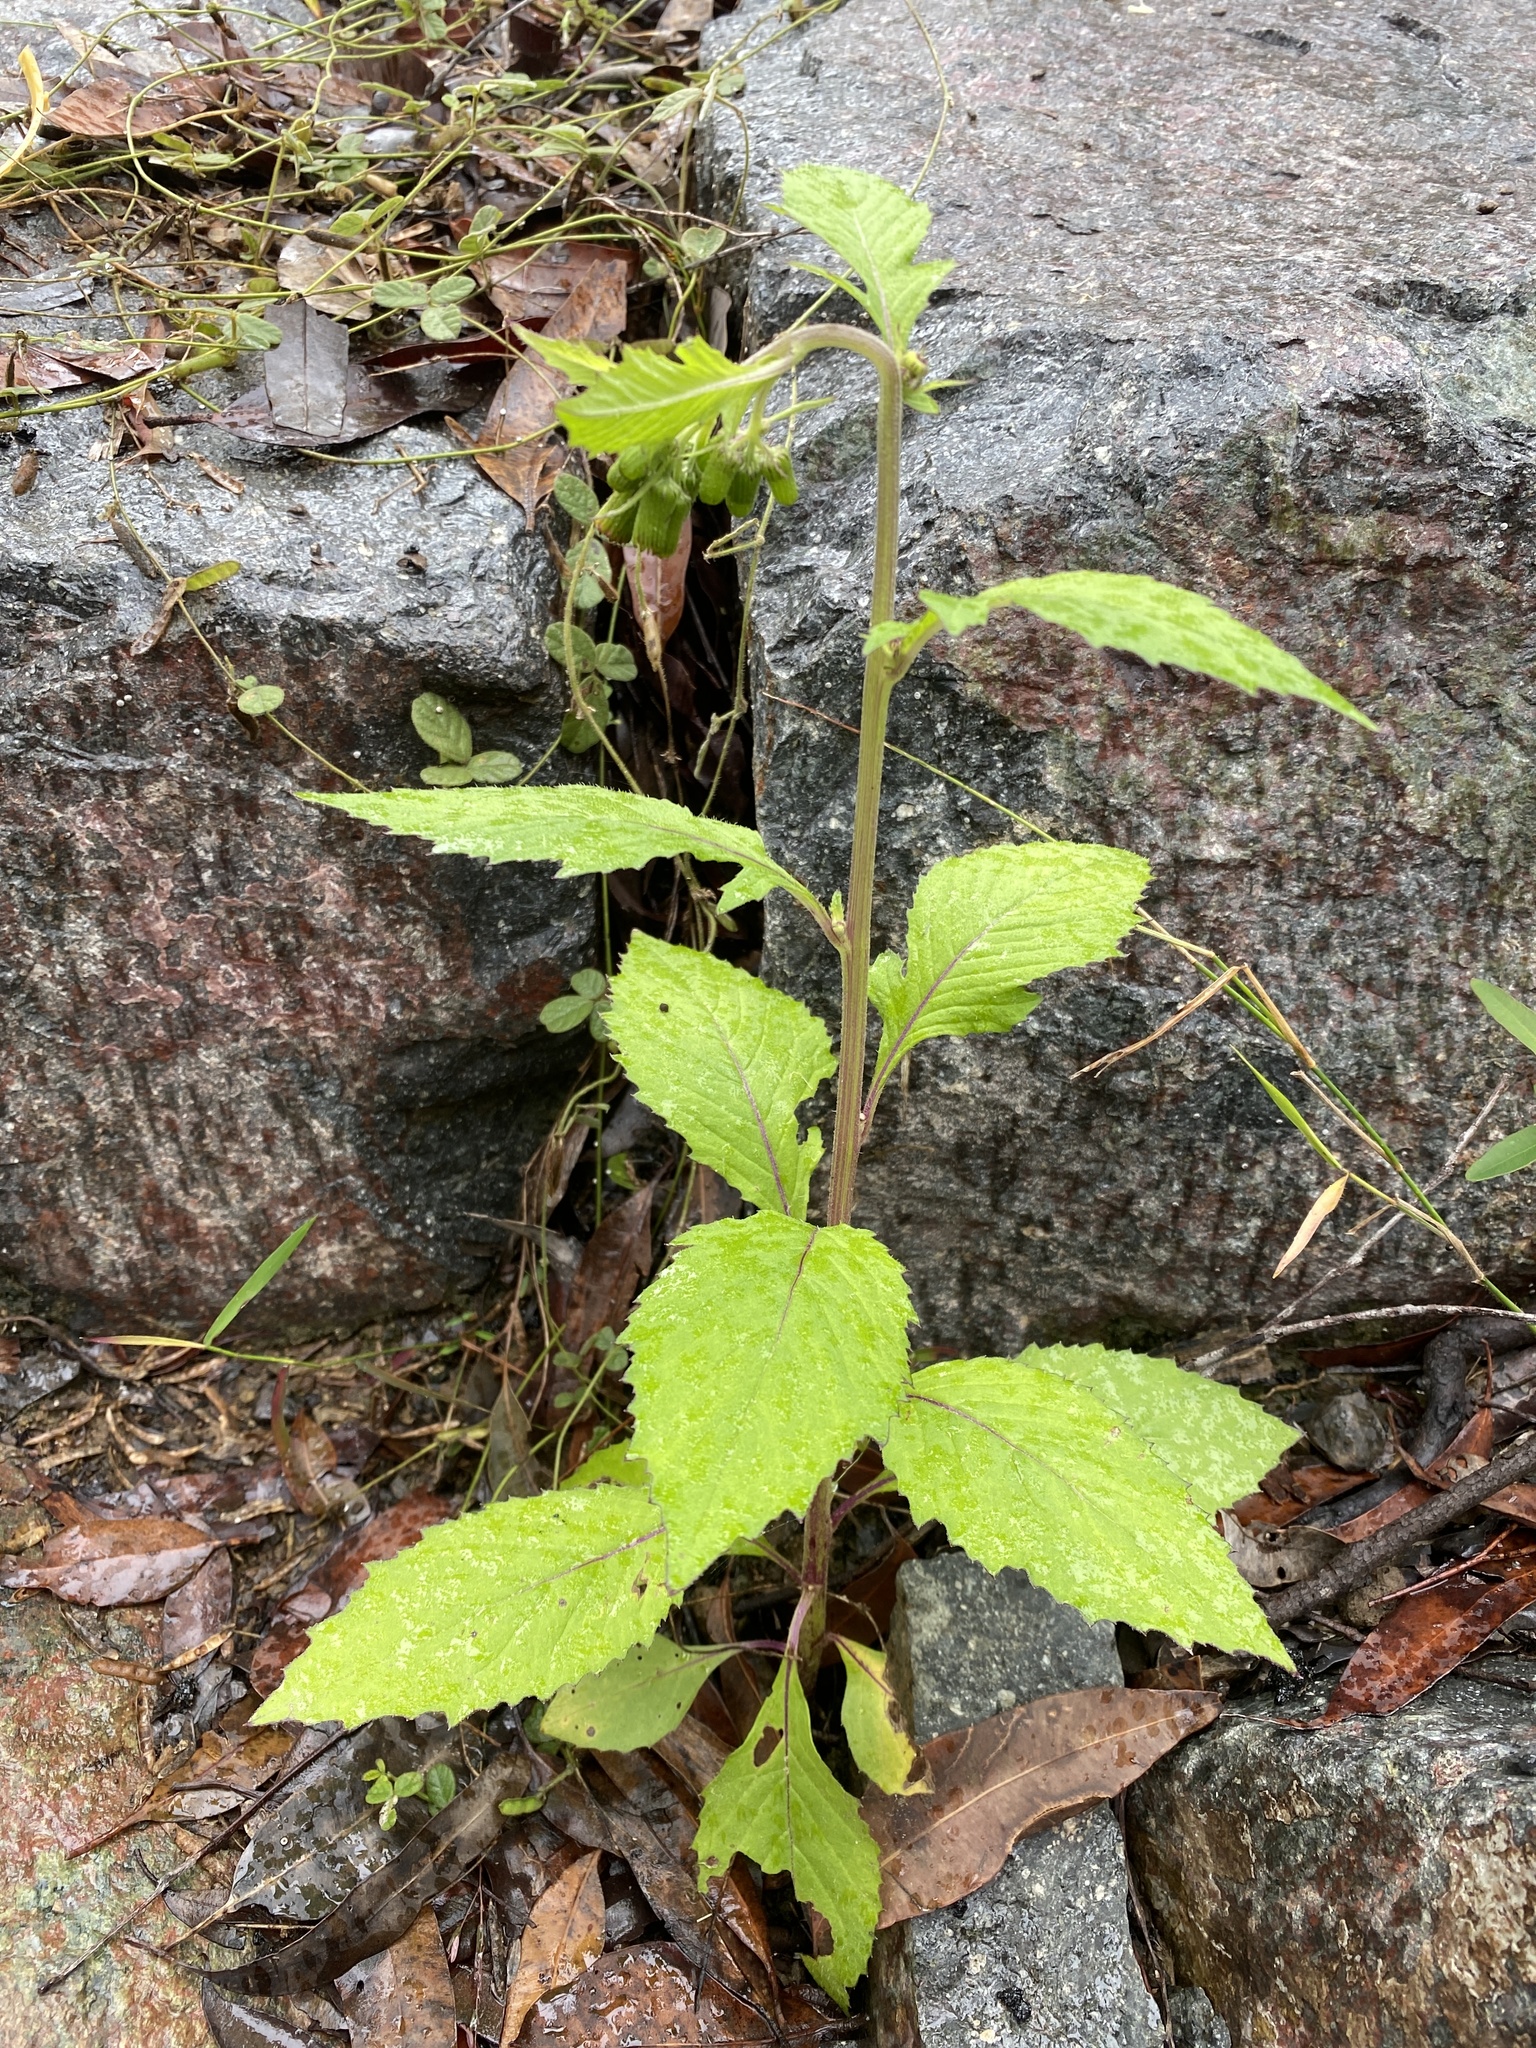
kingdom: Plantae
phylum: Tracheophyta
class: Magnoliopsida
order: Asterales
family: Asteraceae
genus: Crassocephalum
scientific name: Crassocephalum crepidioides
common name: Redflower ragleaf
